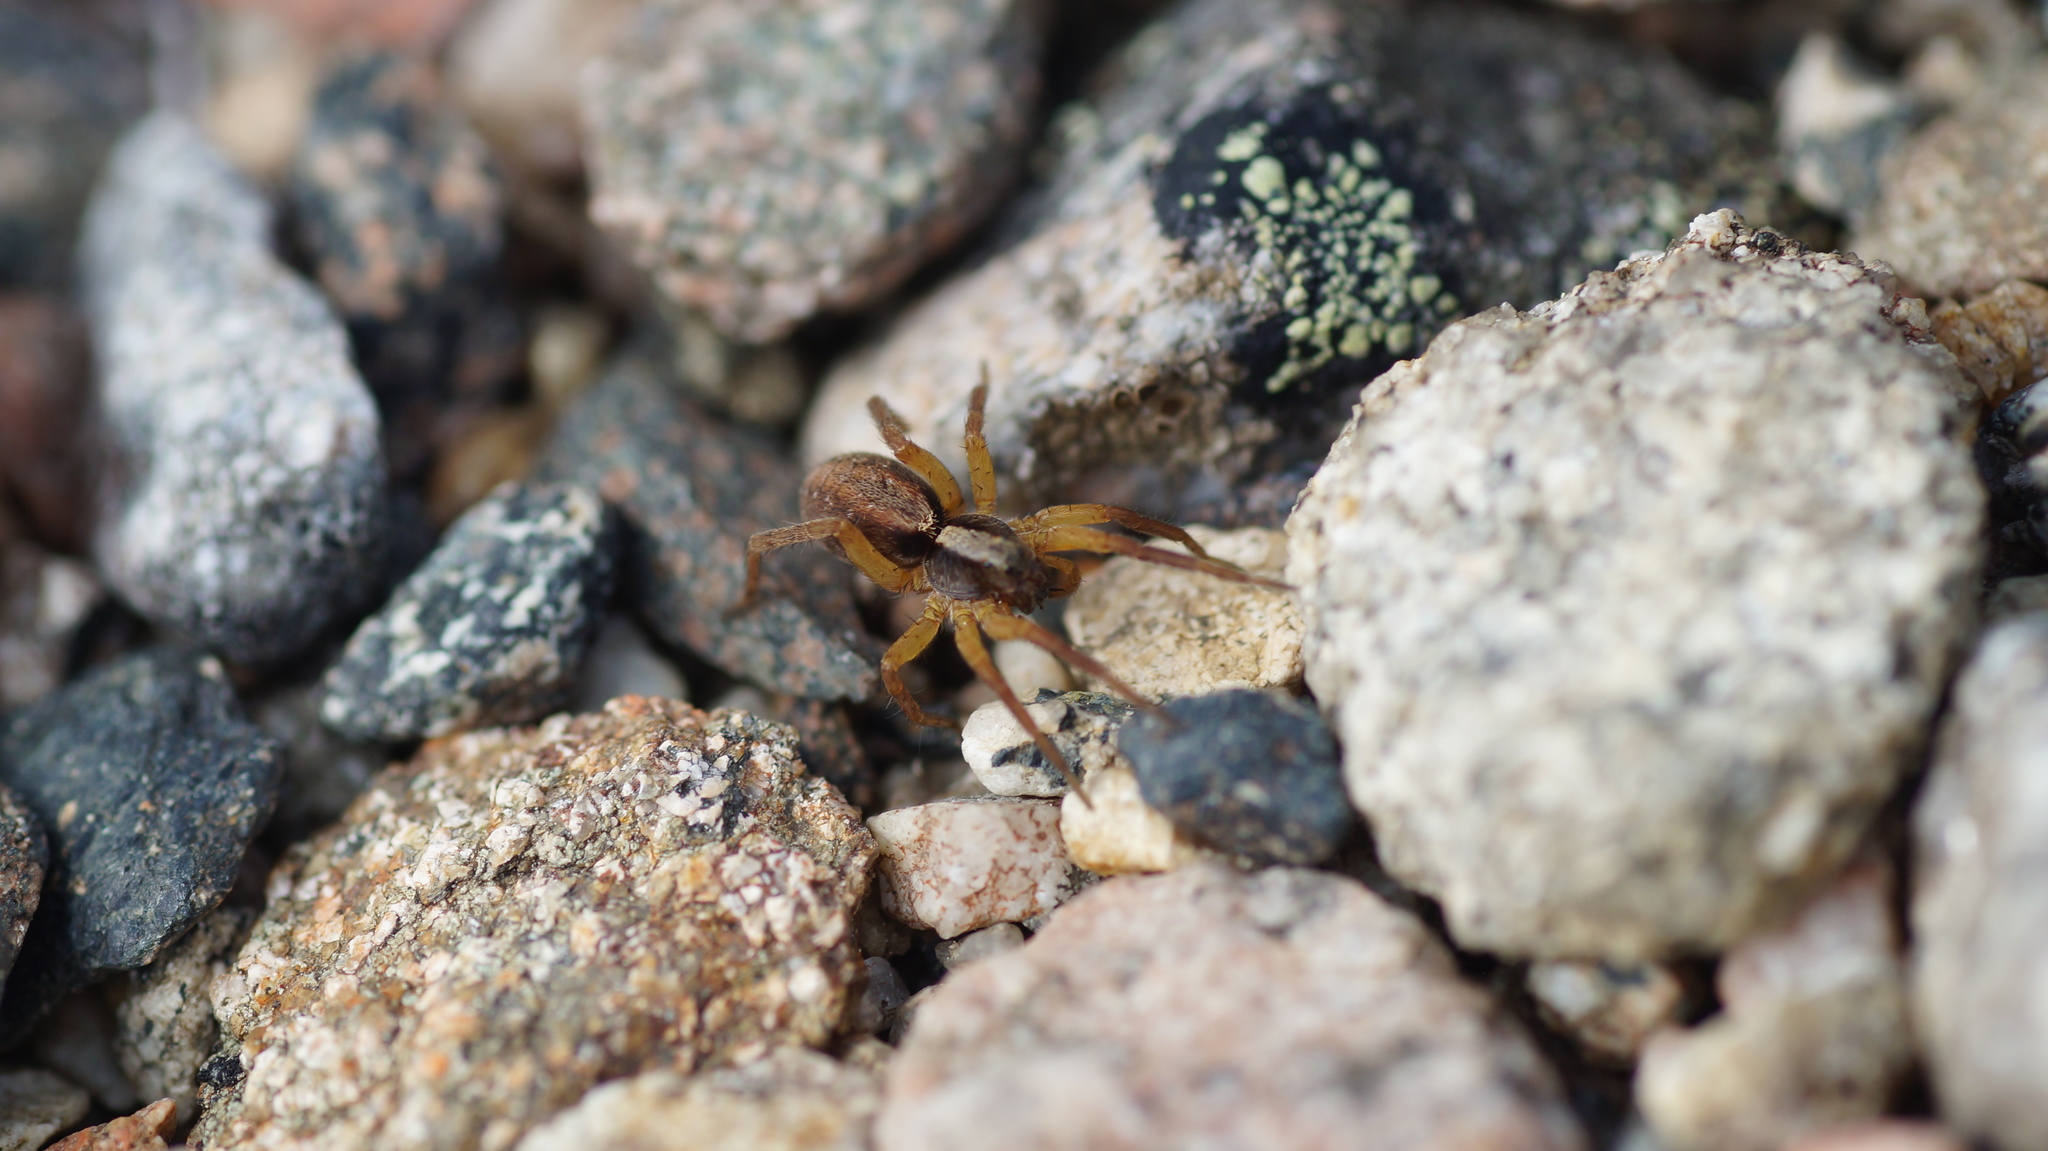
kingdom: Animalia
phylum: Arthropoda
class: Arachnida
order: Araneae
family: Lycosidae
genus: Alopecosa
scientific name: Alopecosa
